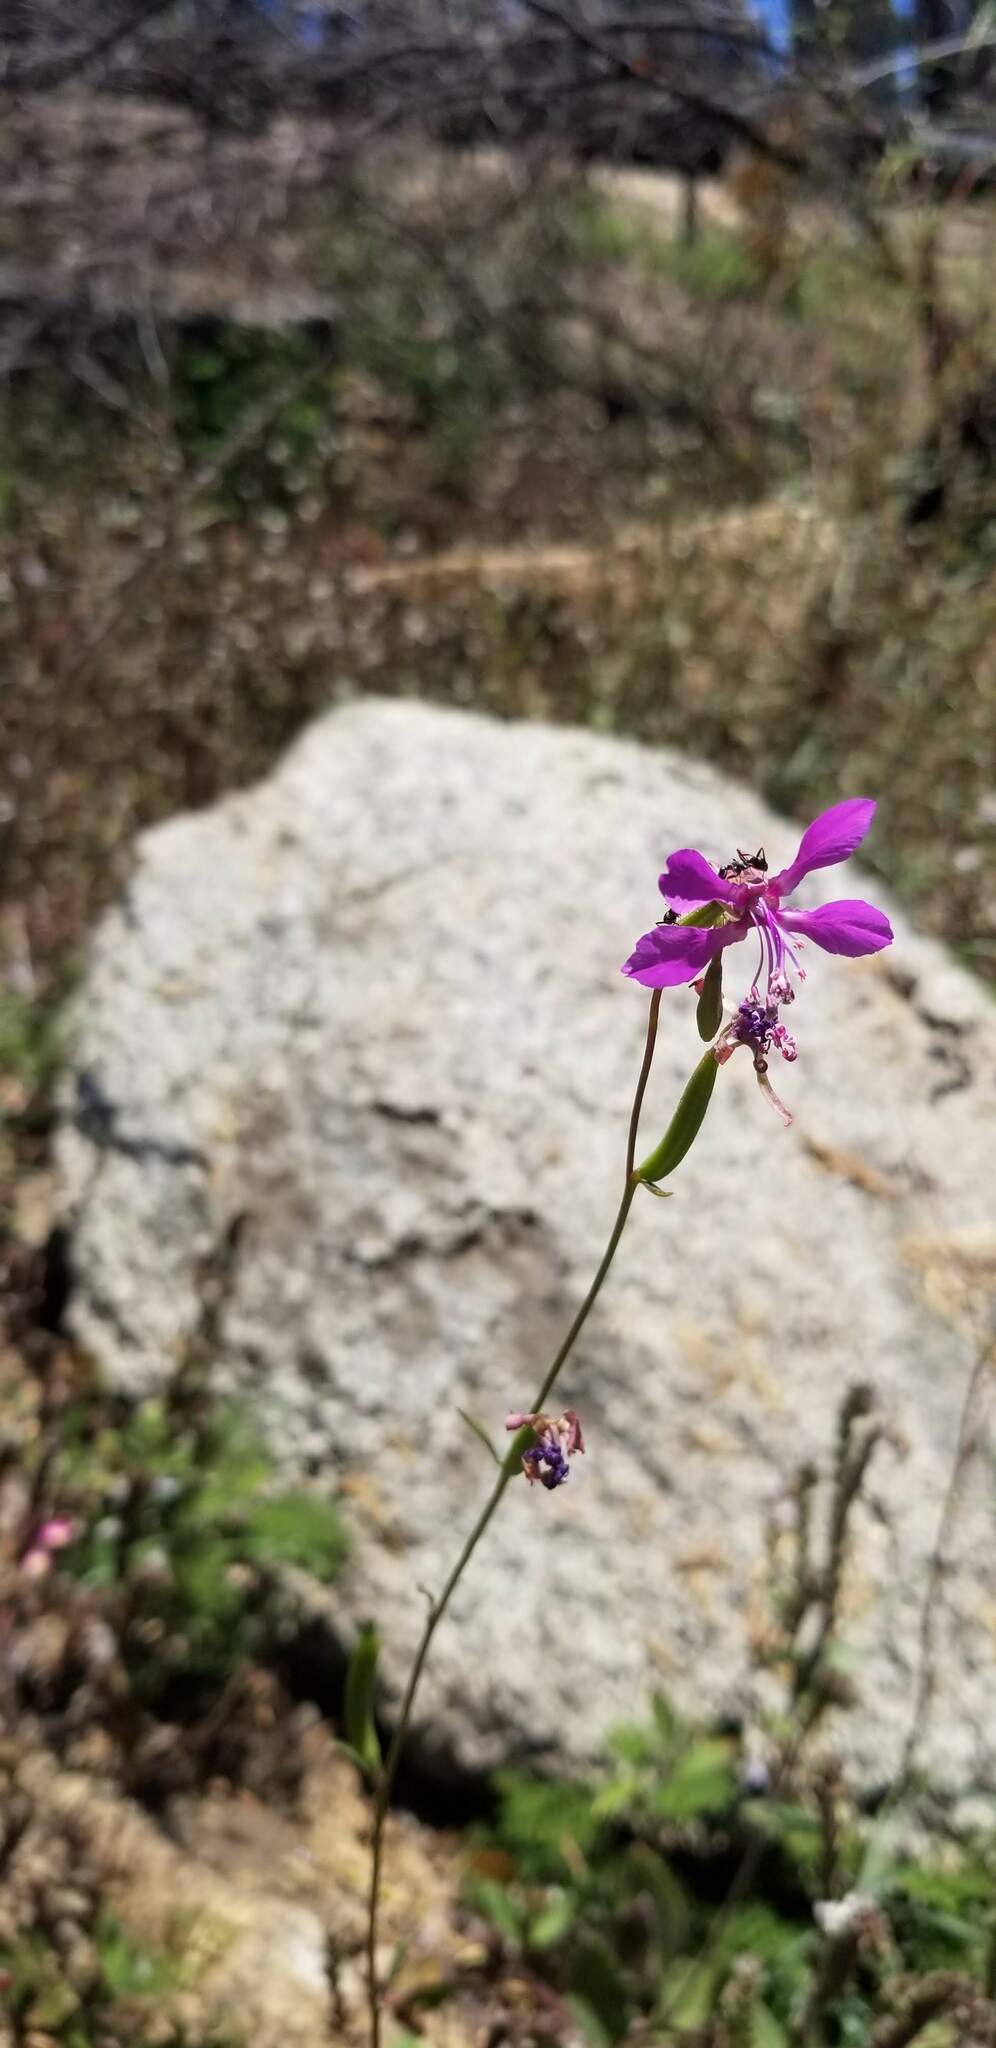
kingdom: Plantae
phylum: Tracheophyta
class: Magnoliopsida
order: Myrtales
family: Onagraceae
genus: Clarkia
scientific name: Clarkia rhomboidea
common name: Broadleaf clarkia
